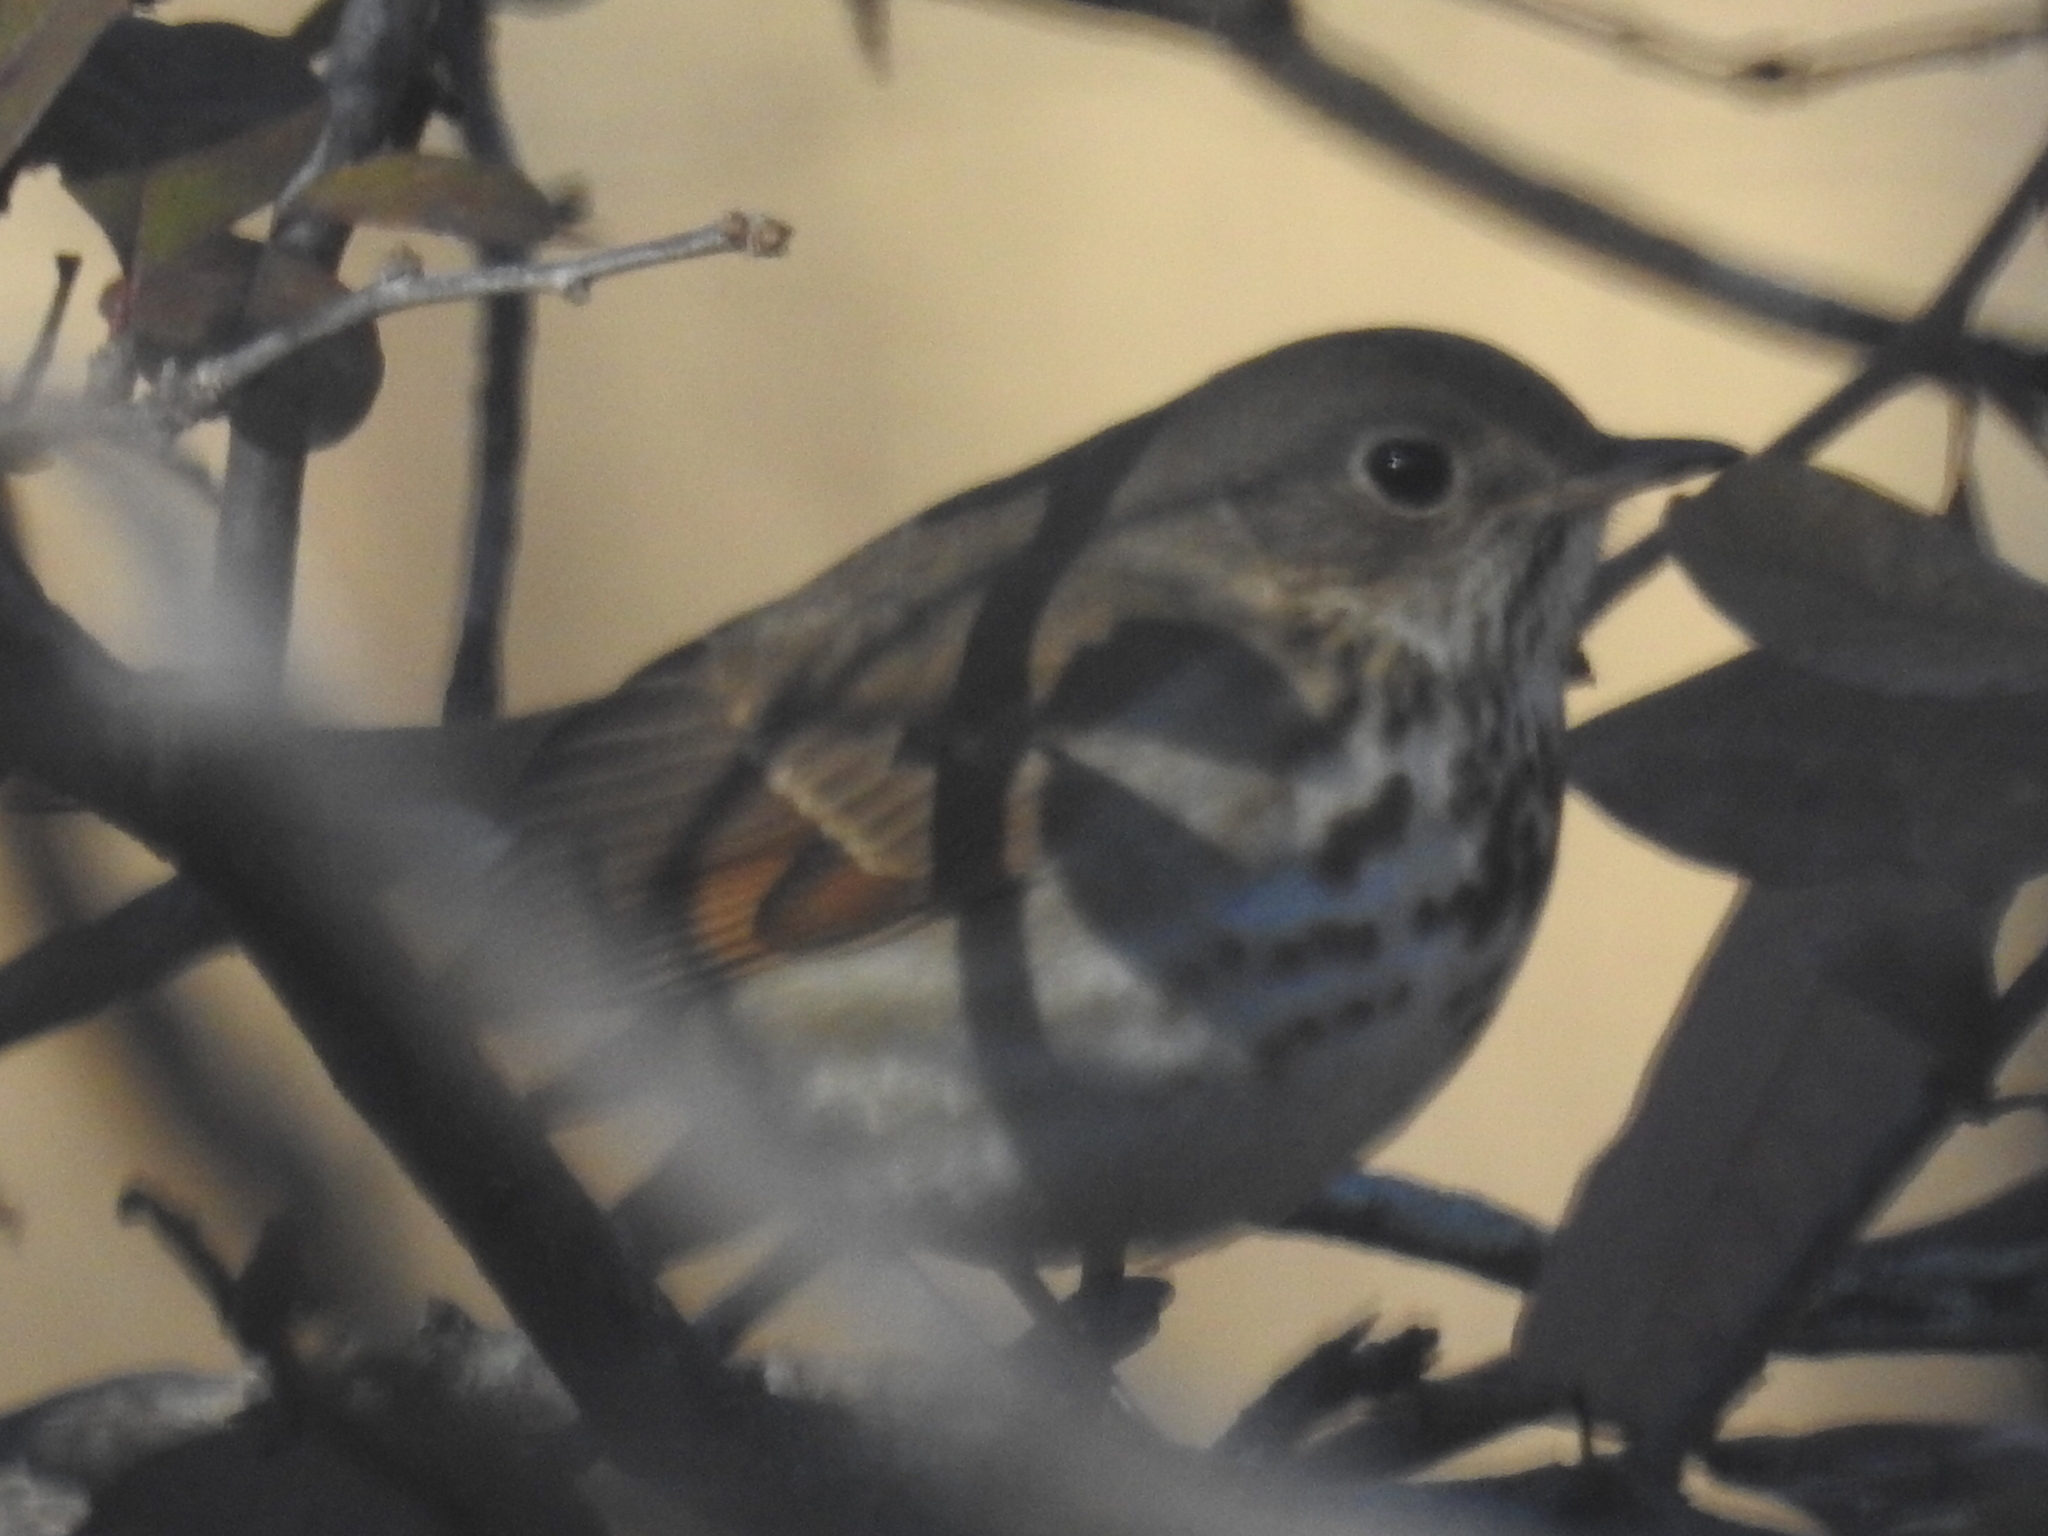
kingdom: Animalia
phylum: Chordata
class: Aves
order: Passeriformes
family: Turdidae
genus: Catharus
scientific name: Catharus guttatus
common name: Hermit thrush
